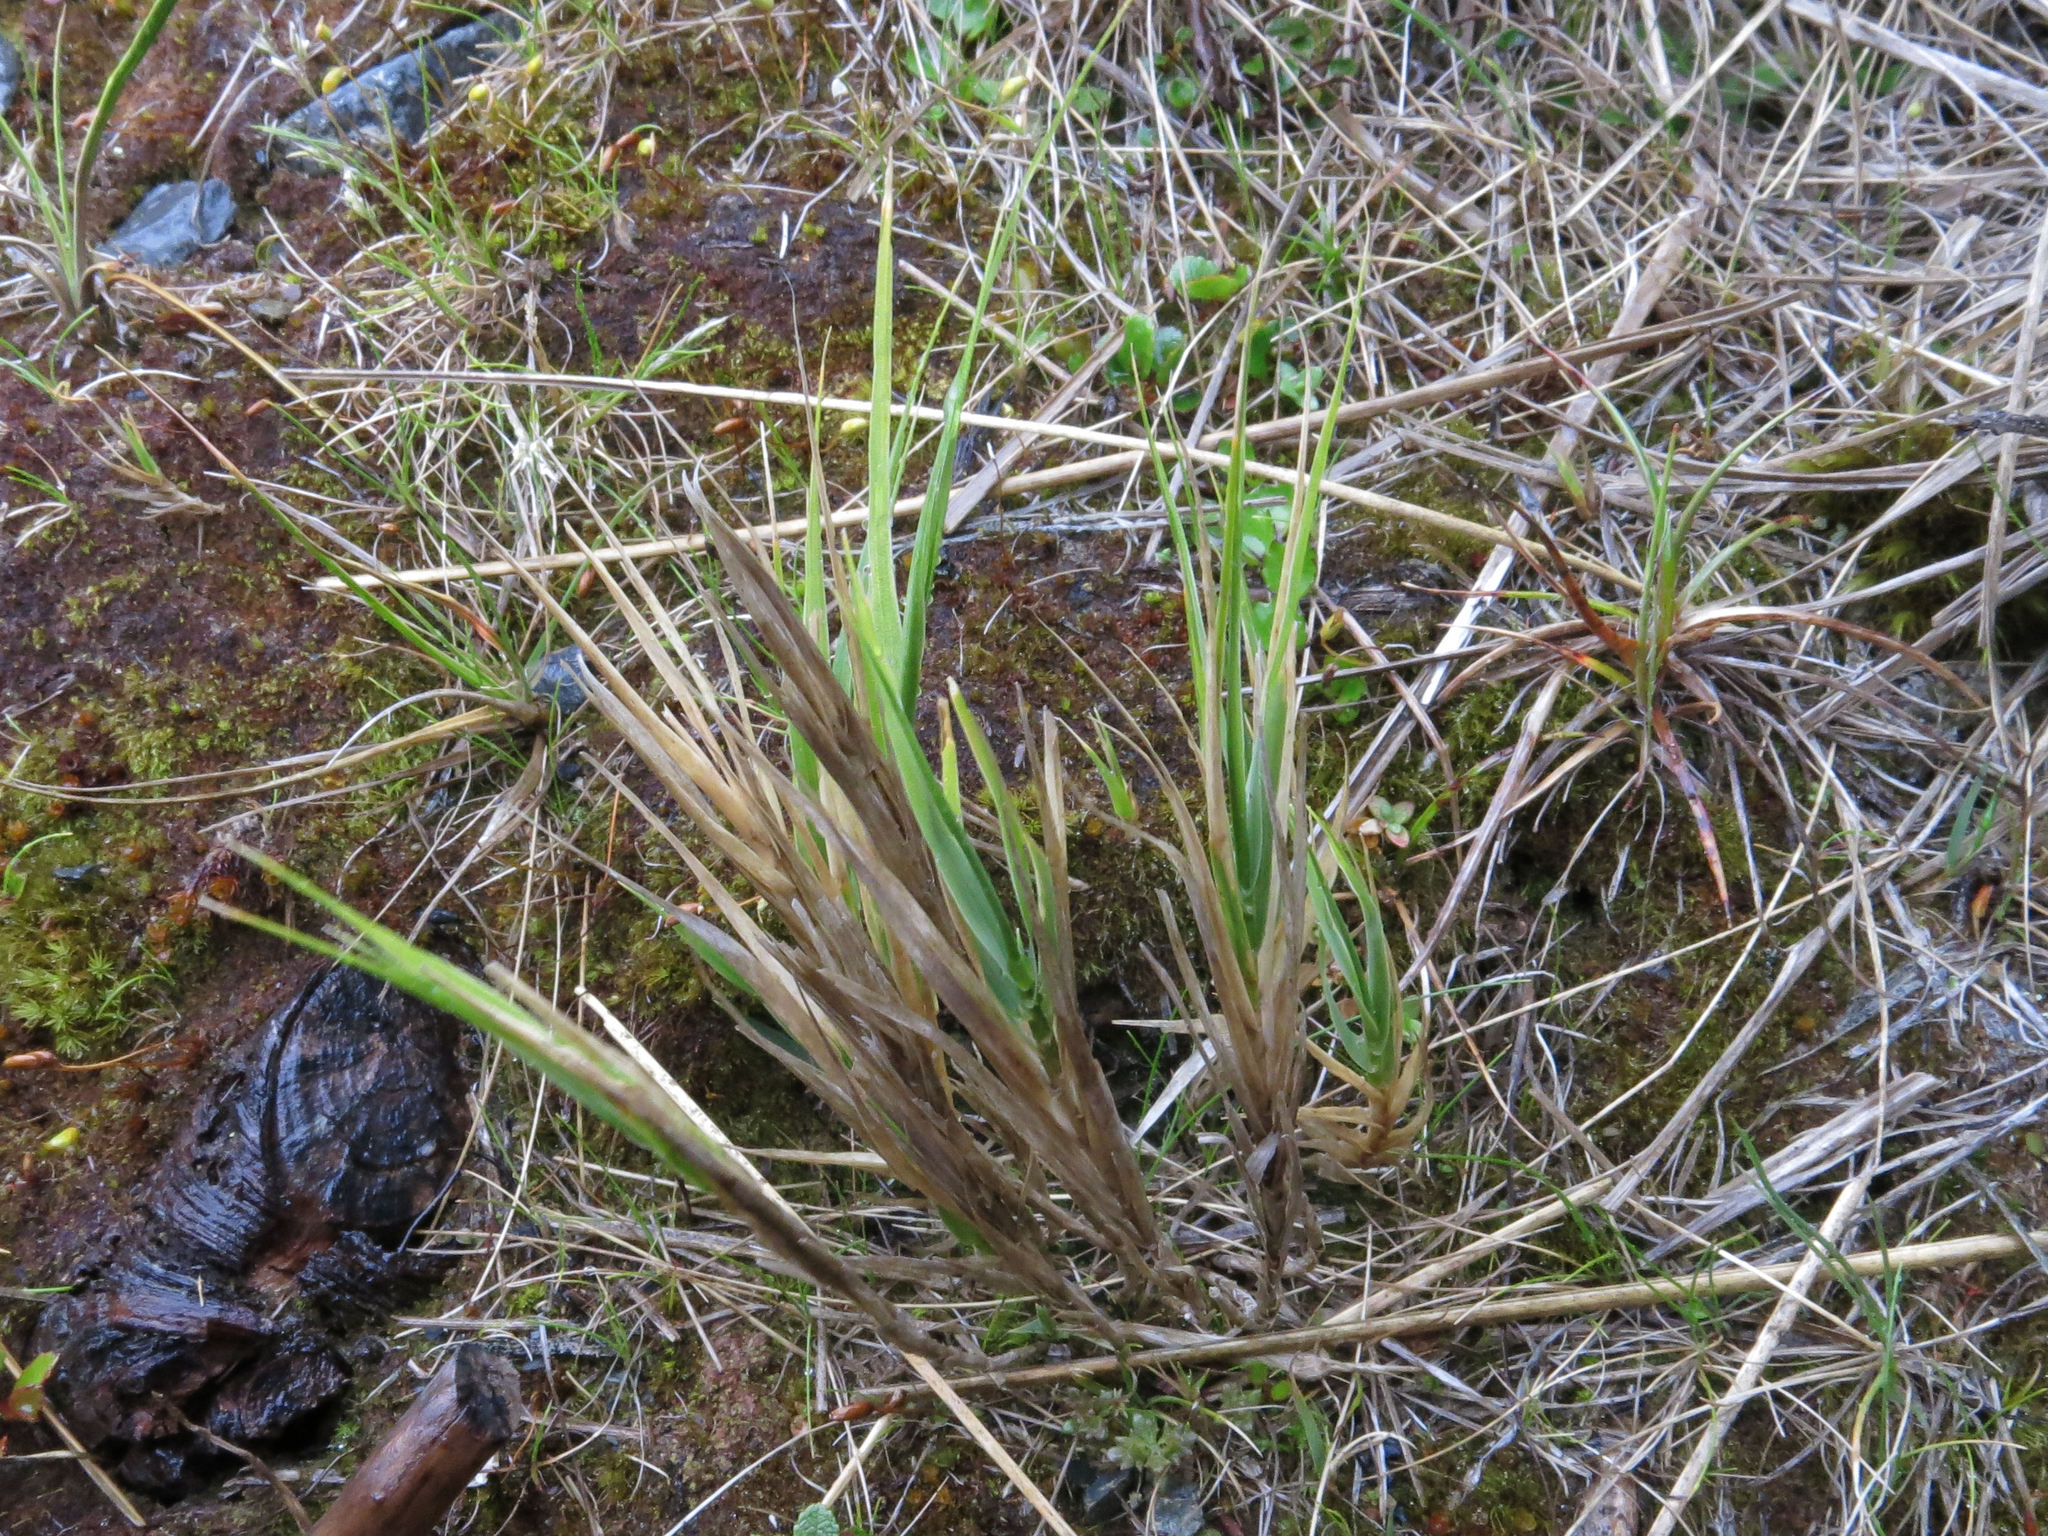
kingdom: Plantae
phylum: Tracheophyta
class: Liliopsida
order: Poales
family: Poaceae
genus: Zotovia
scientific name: Zotovia colensoi
